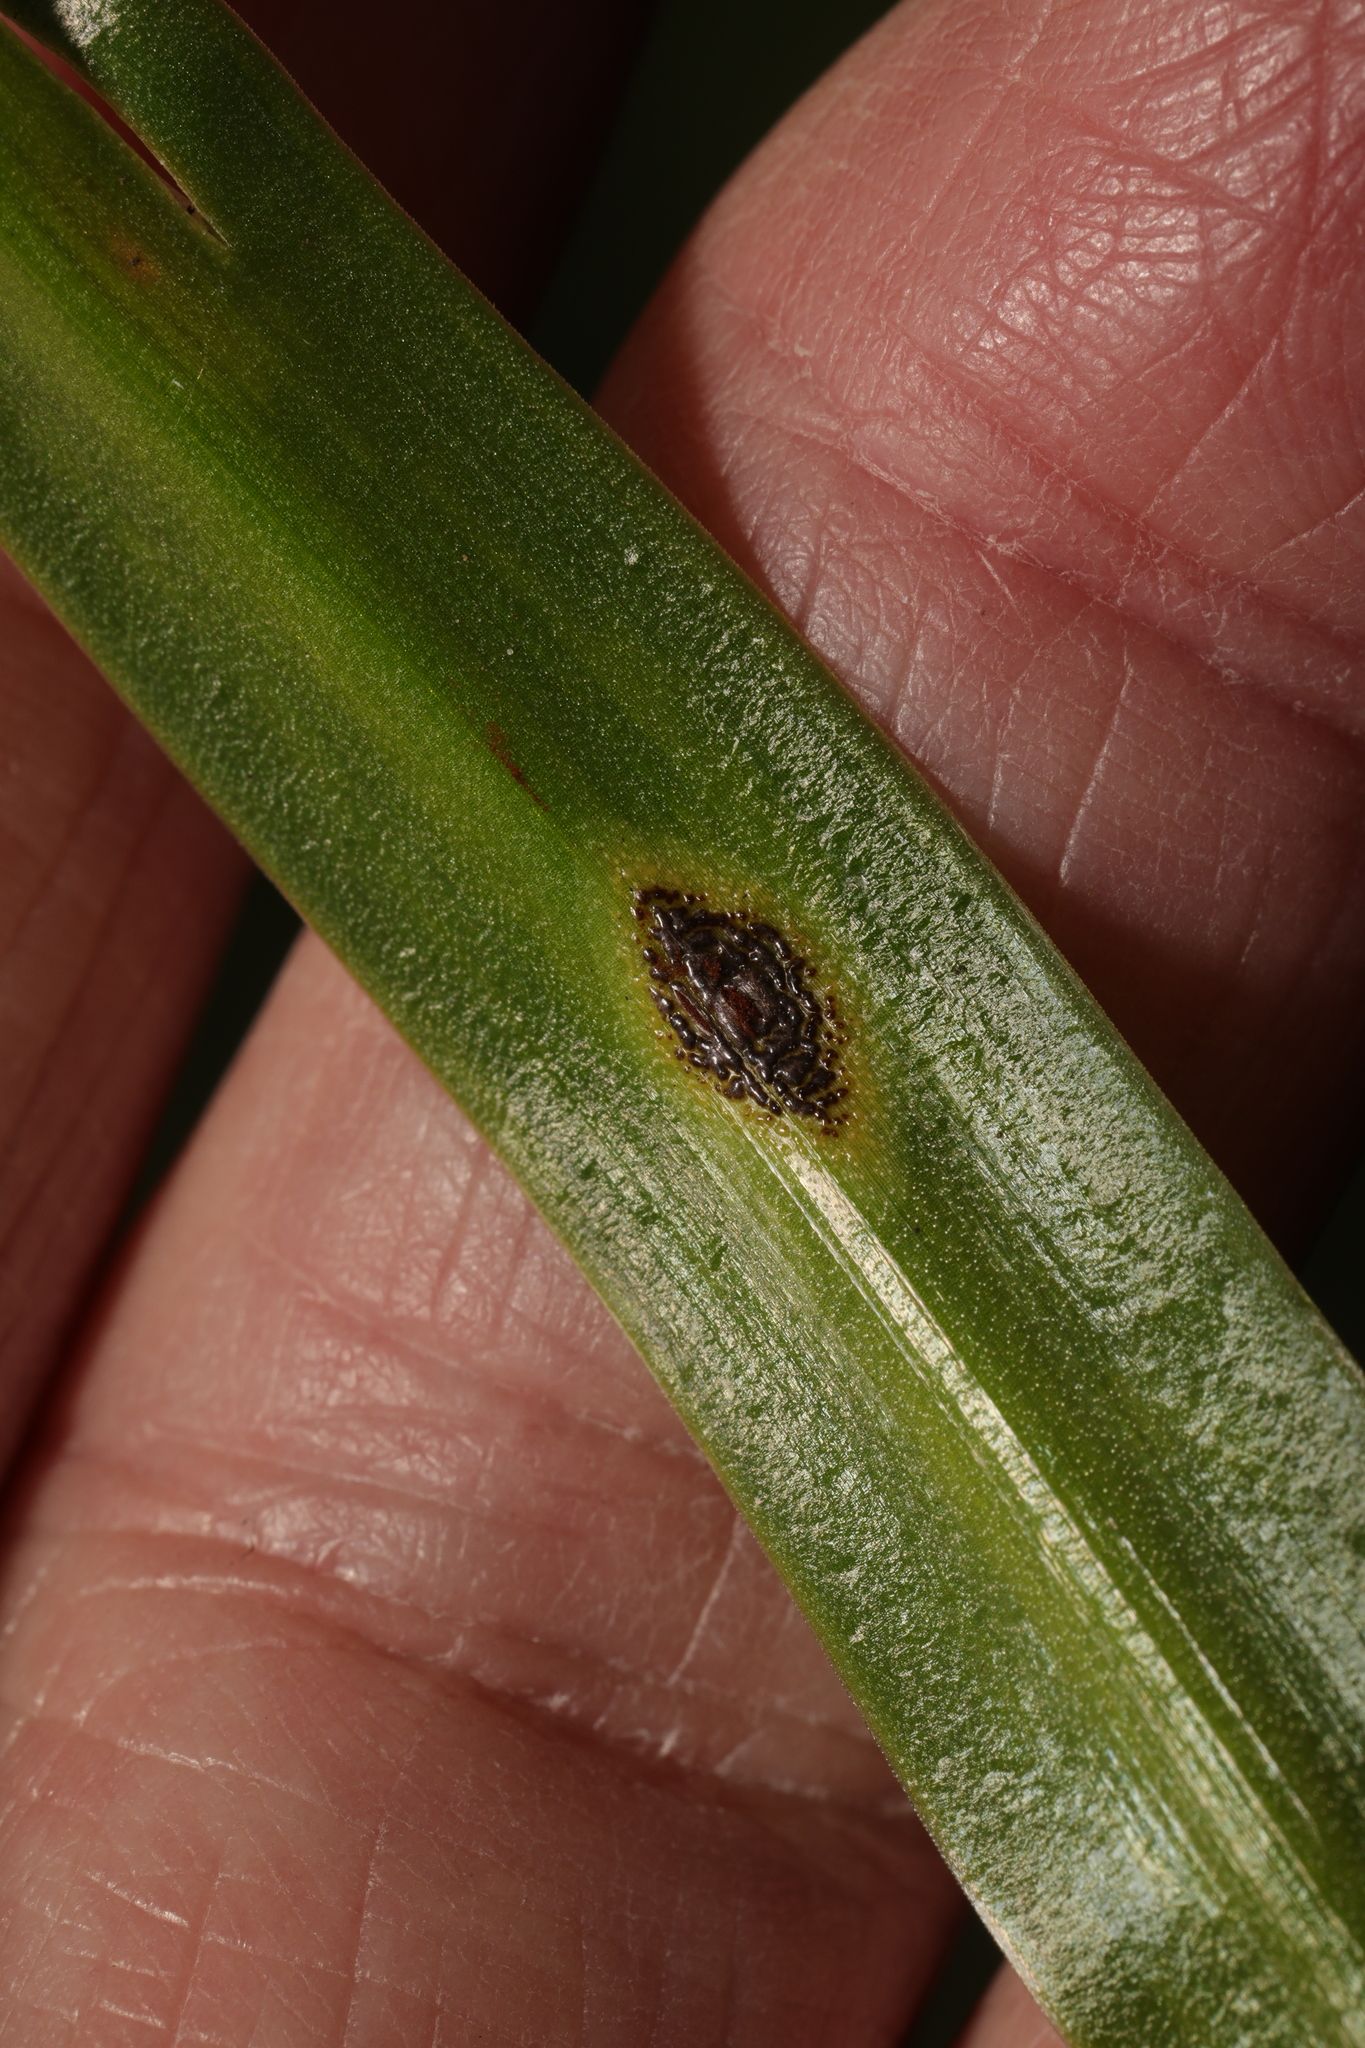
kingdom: Fungi
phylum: Basidiomycota
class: Pucciniomycetes
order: Pucciniales
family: Pucciniaceae
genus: Uromyces
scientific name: Uromyces hyacinthi
